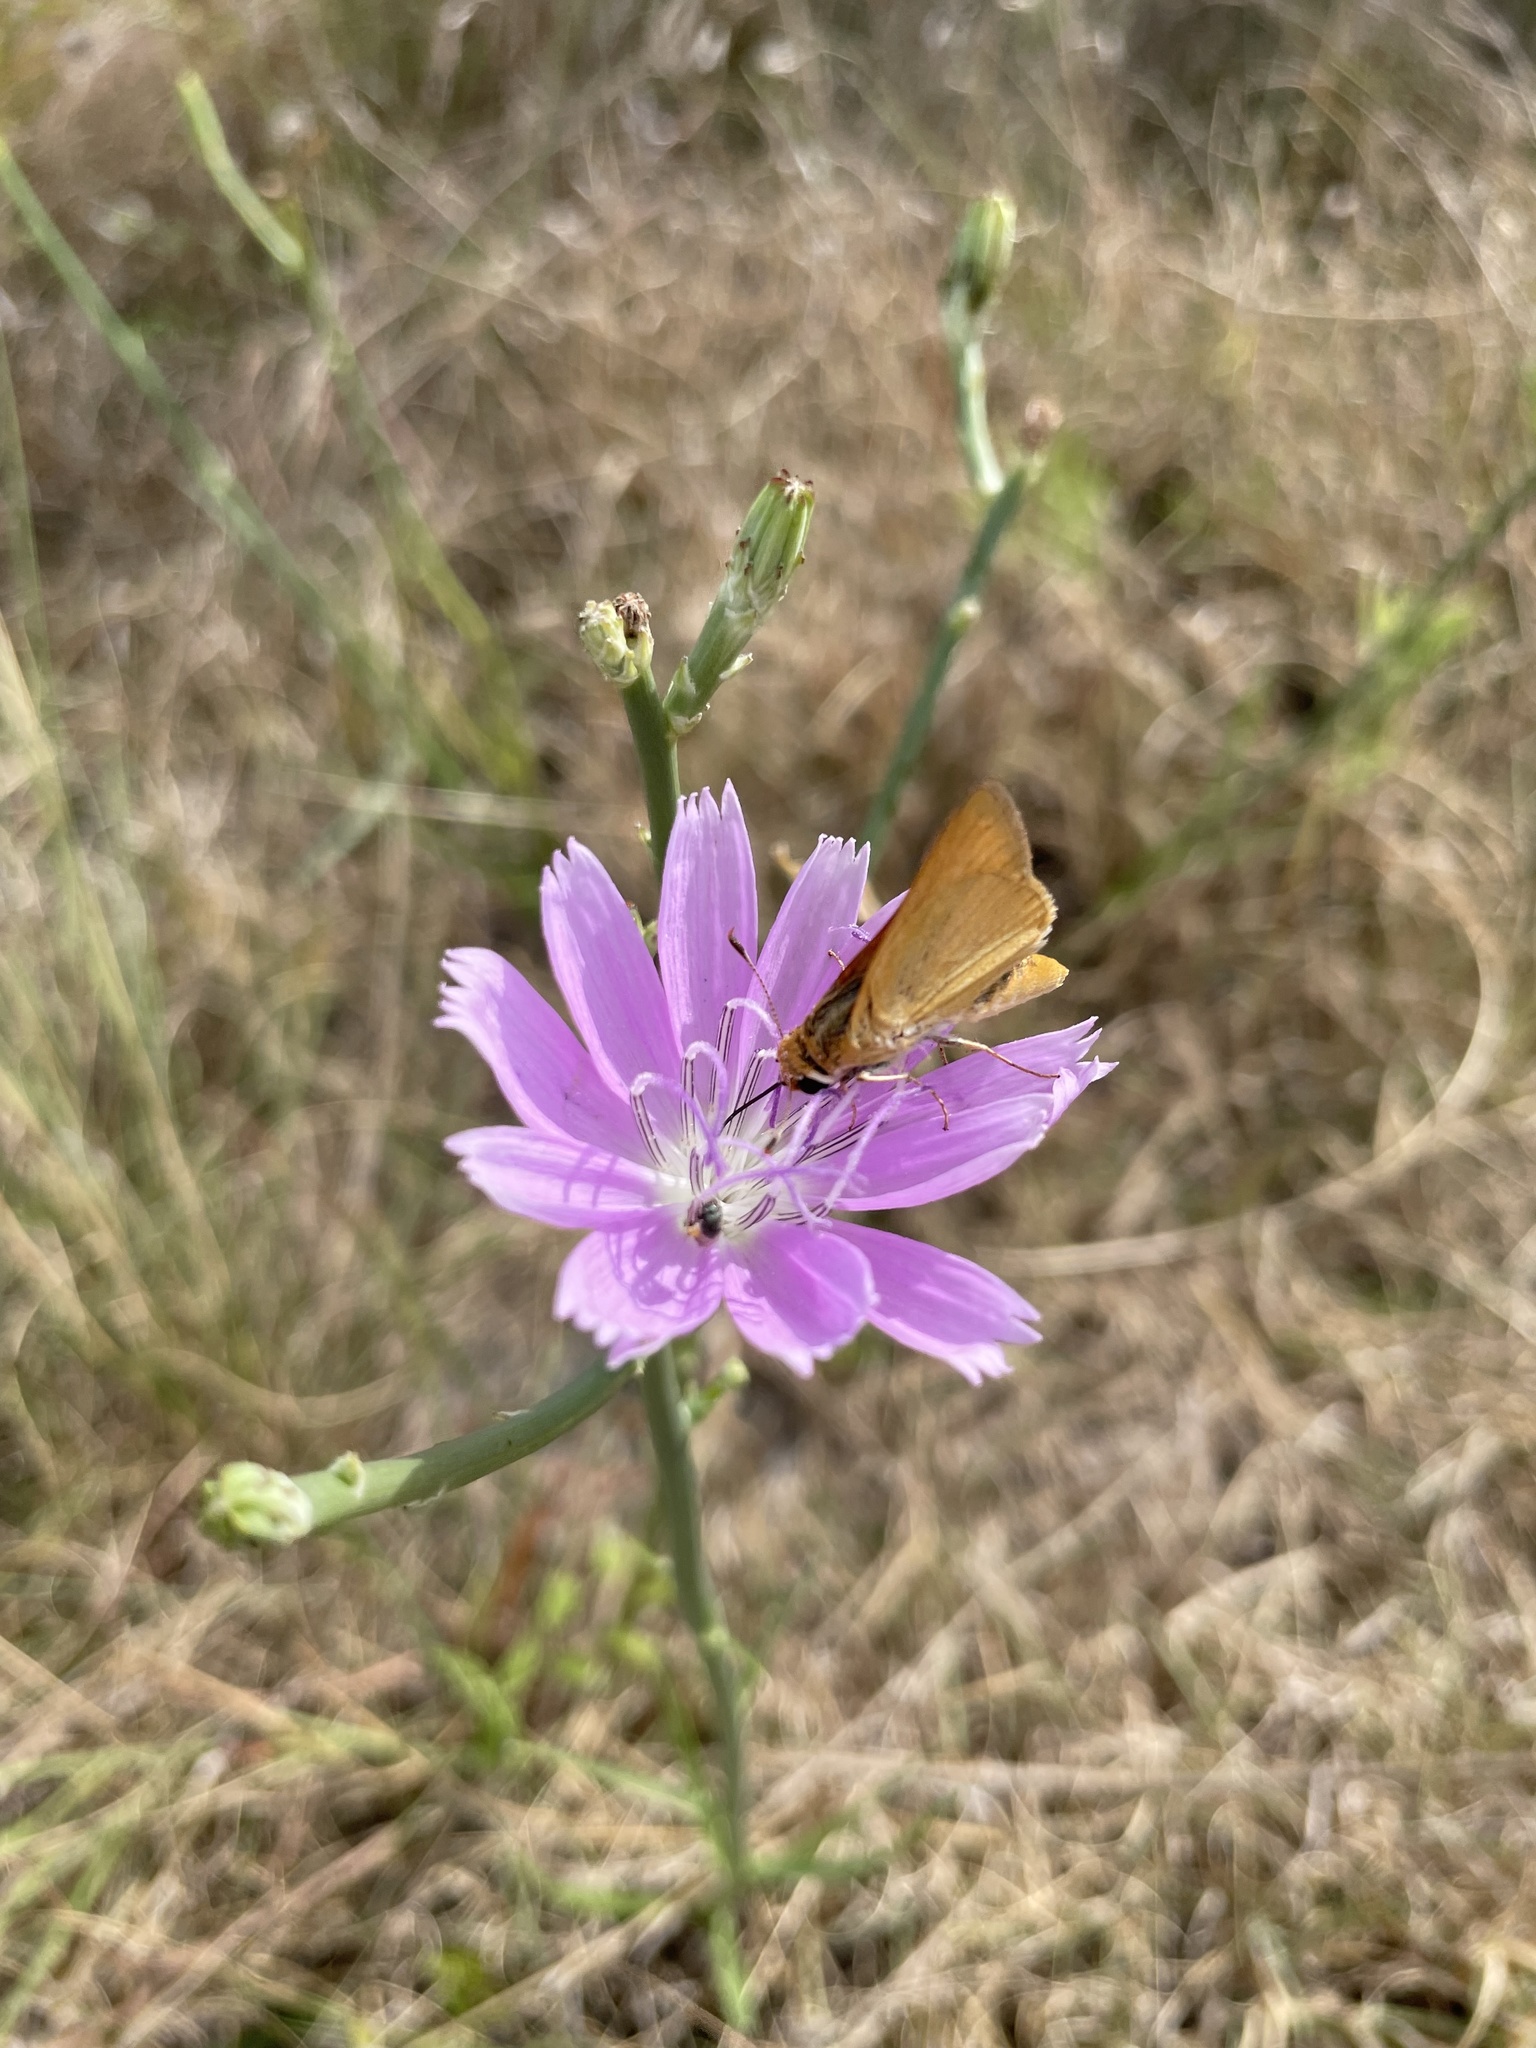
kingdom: Animalia
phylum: Arthropoda
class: Insecta
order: Lepidoptera
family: Hesperiidae
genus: Atrytone
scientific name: Atrytone delaware
